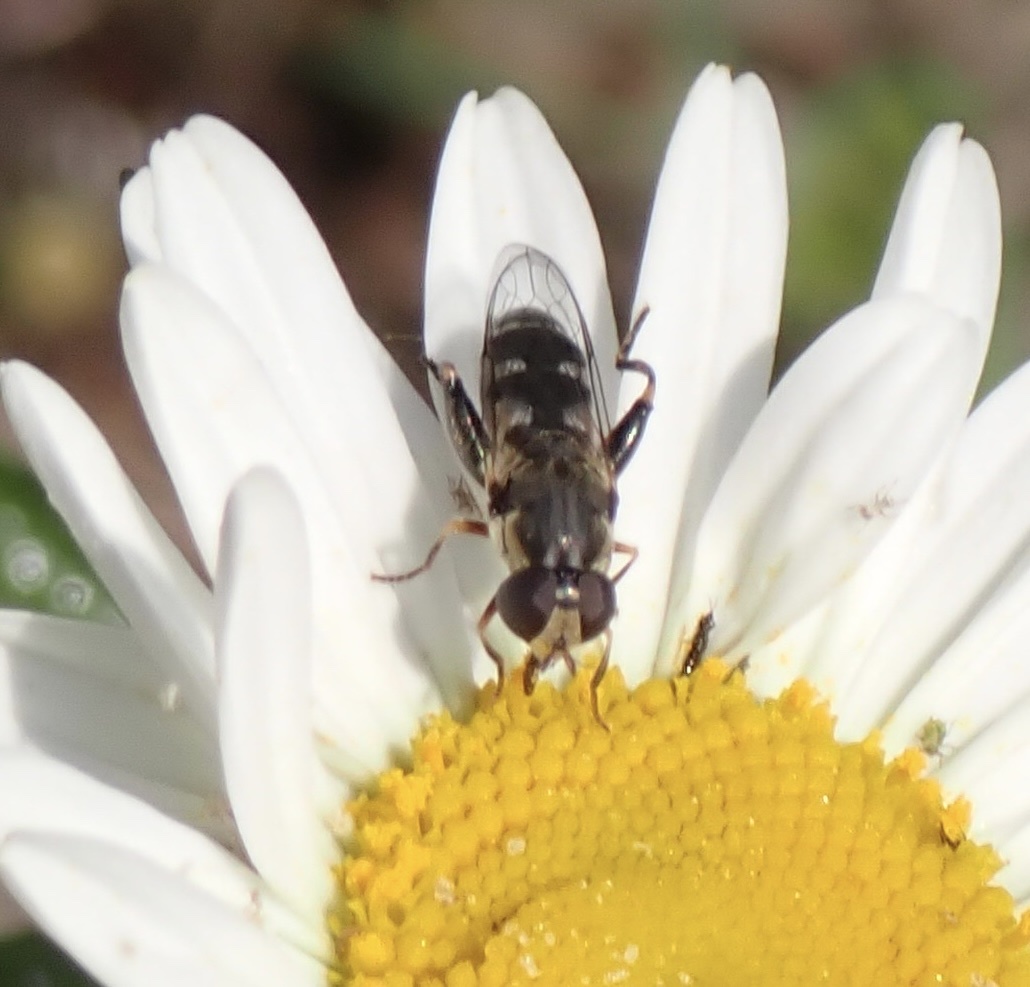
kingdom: Animalia
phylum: Arthropoda
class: Insecta
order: Diptera
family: Syrphidae
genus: Syritta
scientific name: Syritta pipiens
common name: Hover fly
